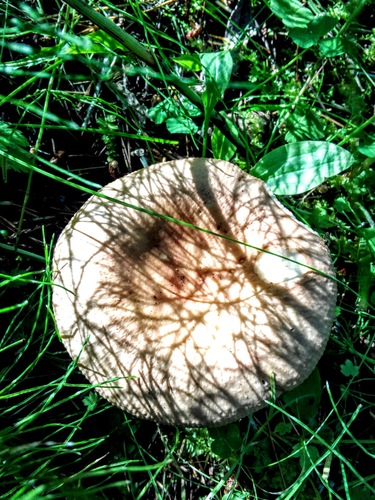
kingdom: Fungi
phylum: Basidiomycota
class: Agaricomycetes
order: Russulales
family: Russulaceae
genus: Russula
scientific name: Russula
